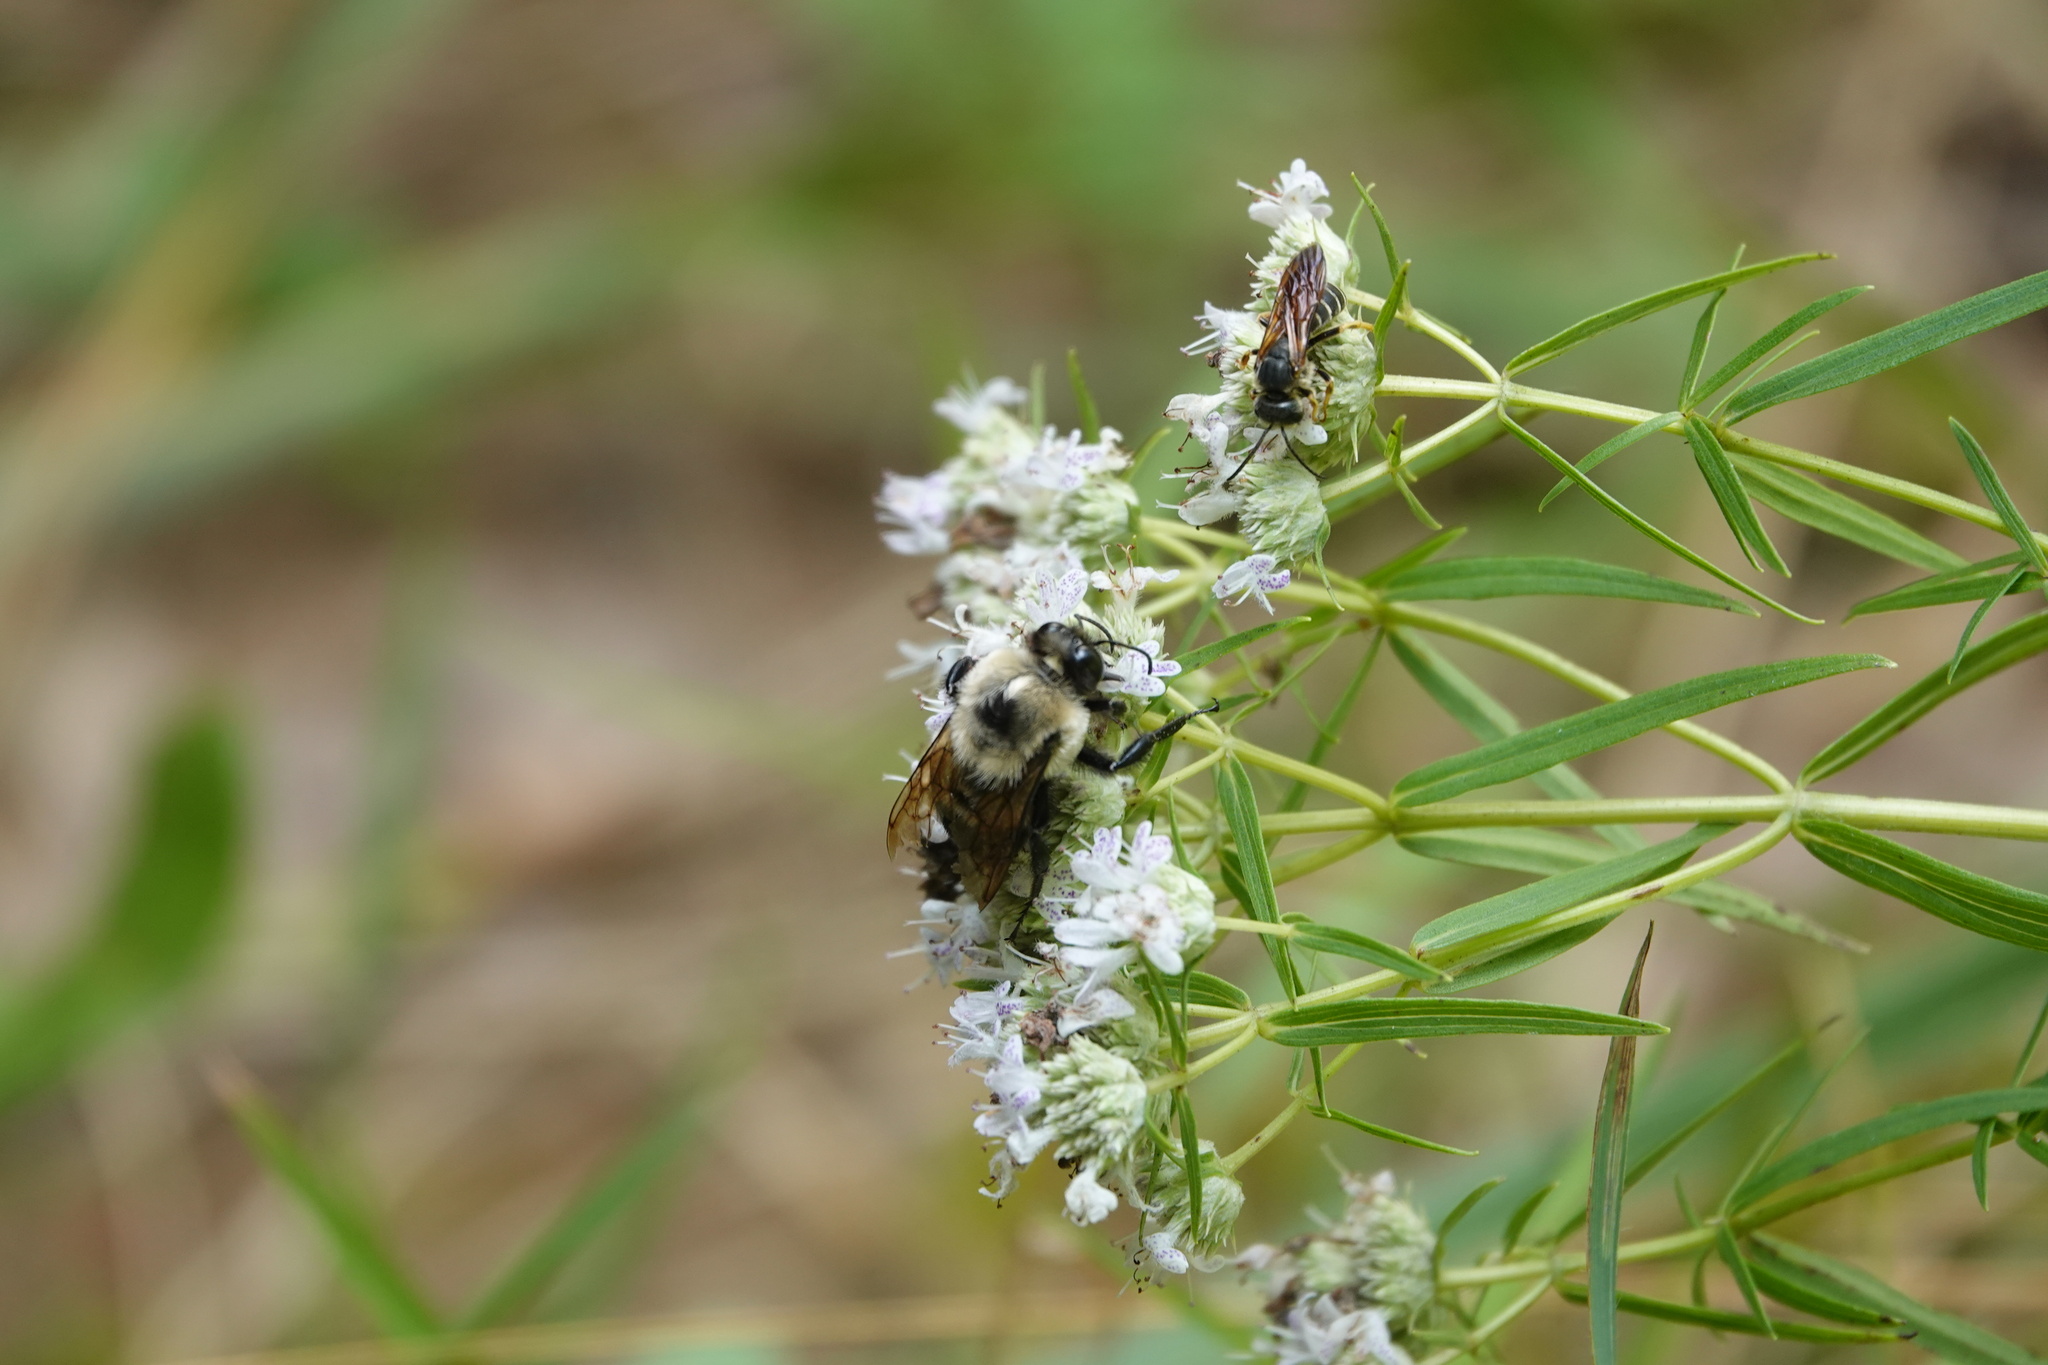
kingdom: Animalia
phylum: Arthropoda
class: Insecta
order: Hymenoptera
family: Apidae
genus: Bombus
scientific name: Bombus griseocollis
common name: Brown-belted bumble bee
